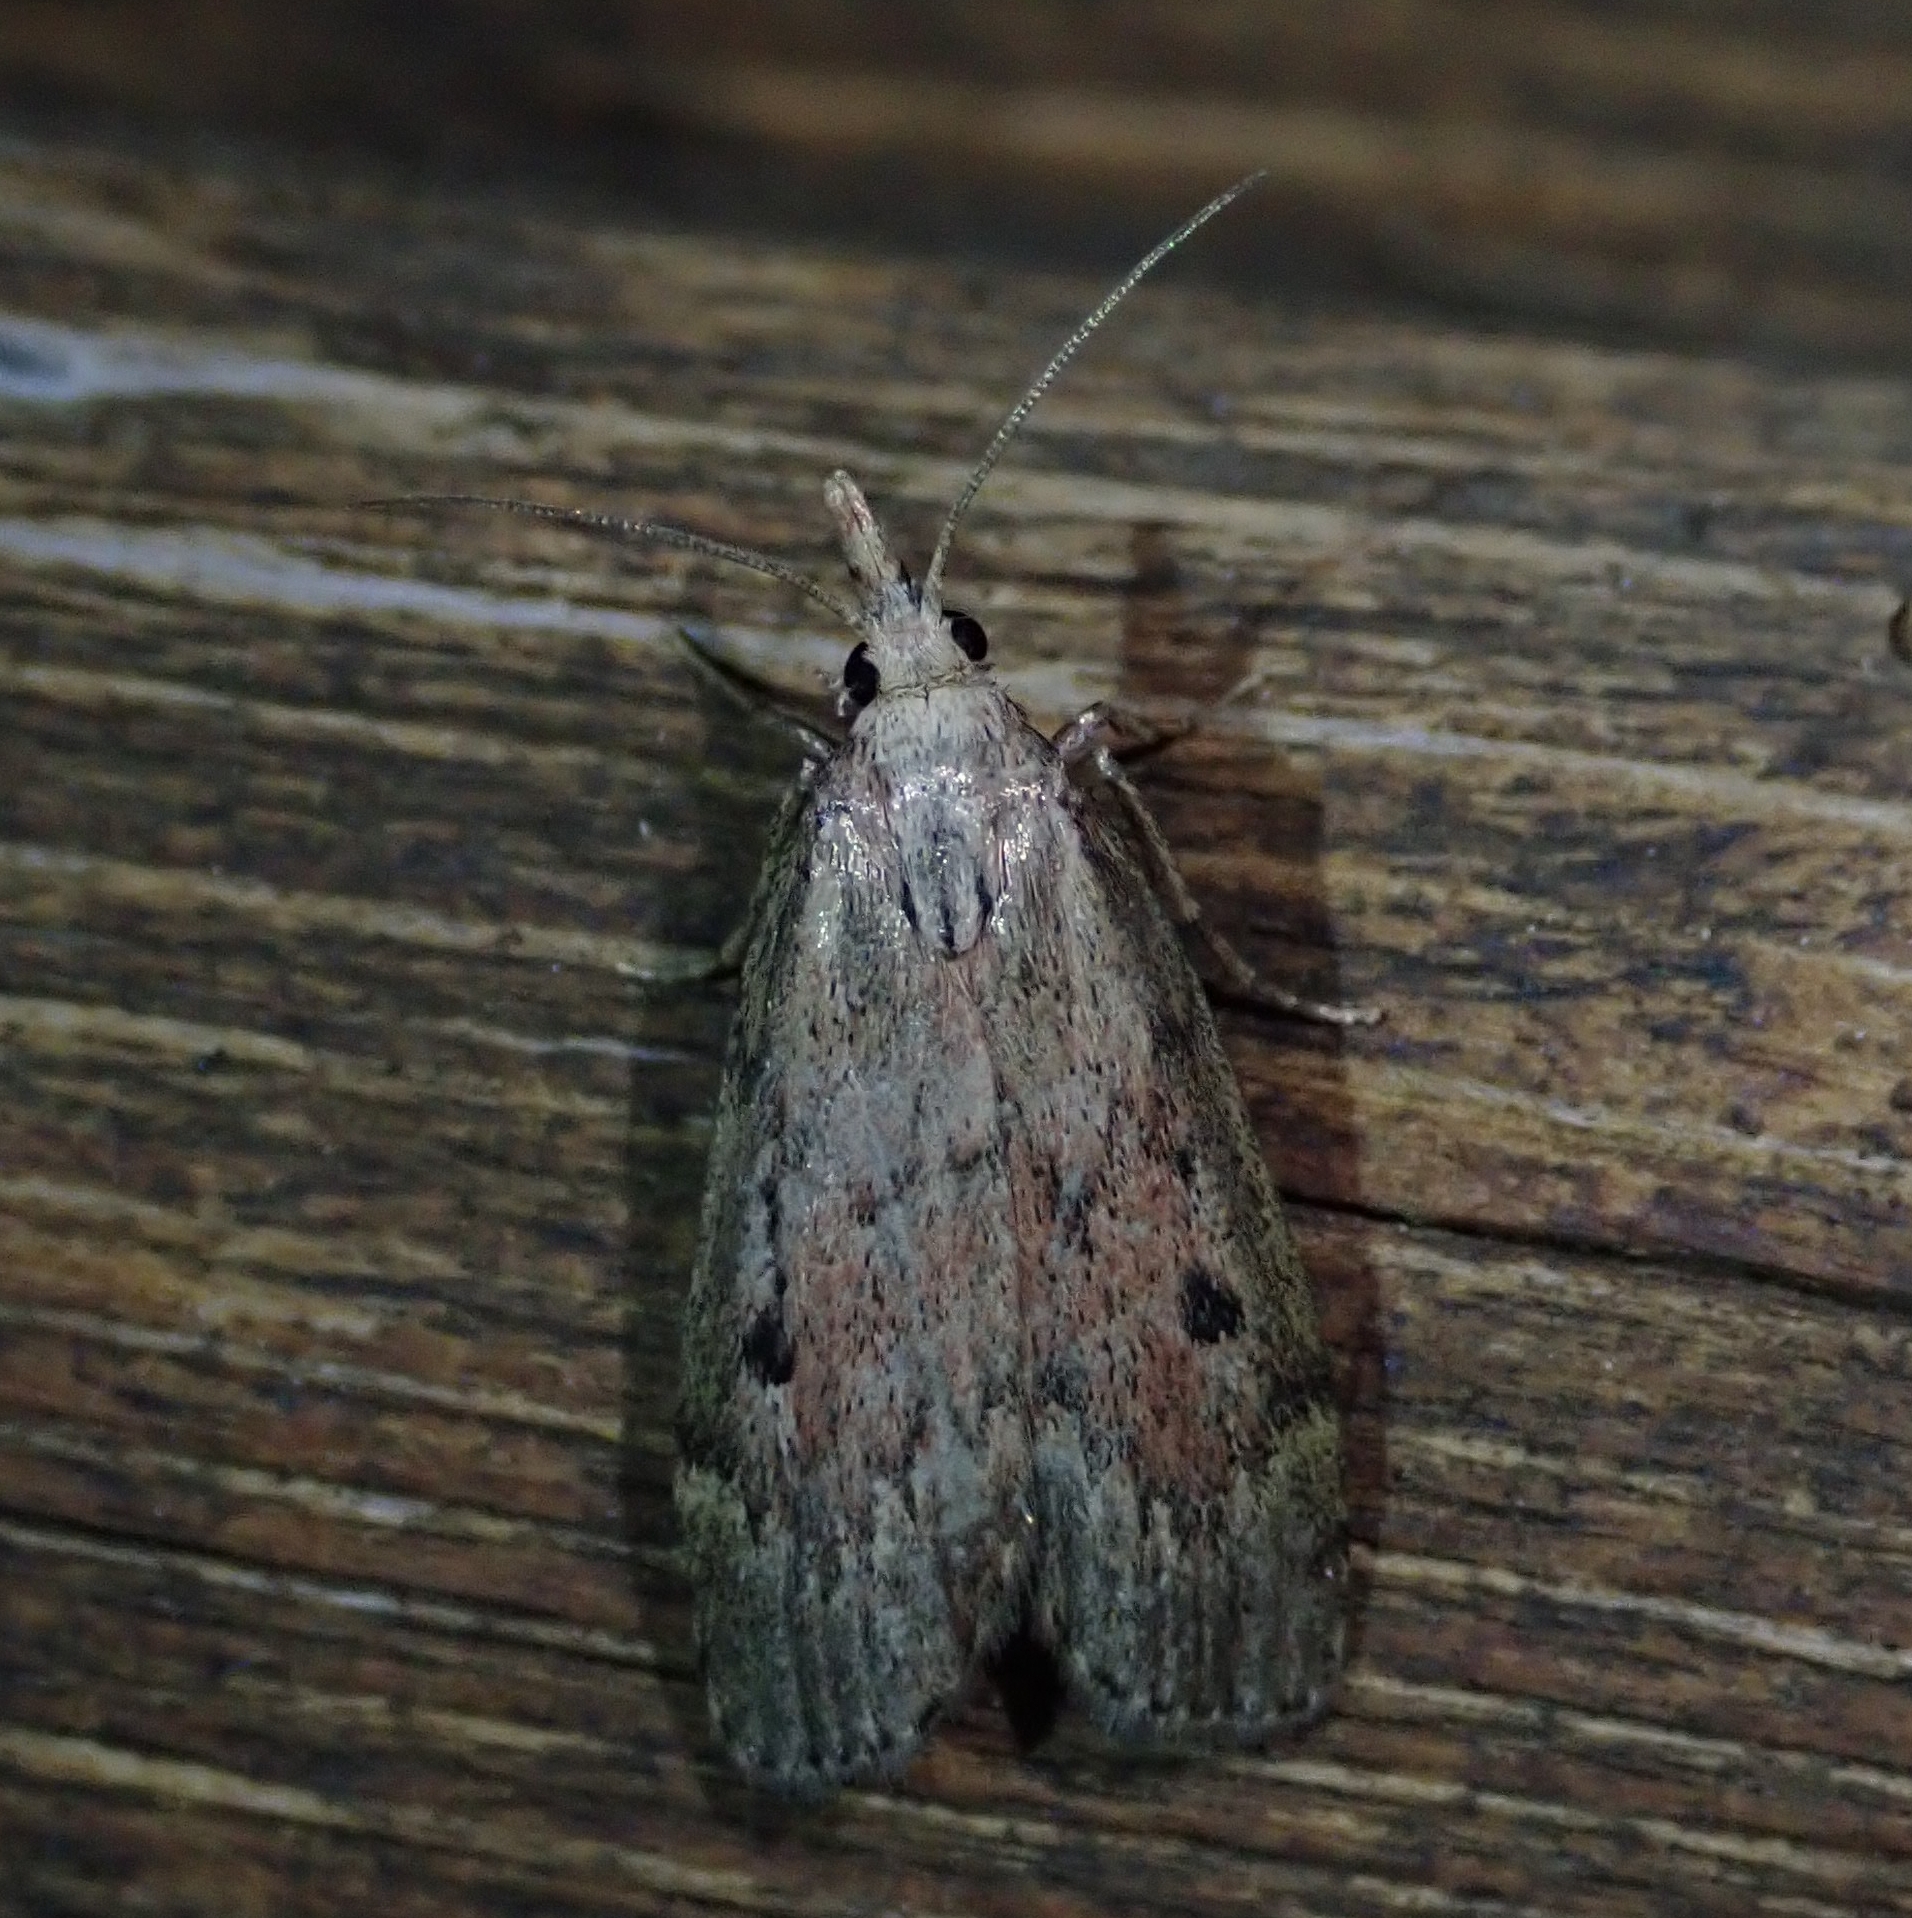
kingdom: Animalia
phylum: Arthropoda
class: Insecta
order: Lepidoptera
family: Pyralidae
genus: Aphomia
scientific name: Aphomia sociella
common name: Bee moth
